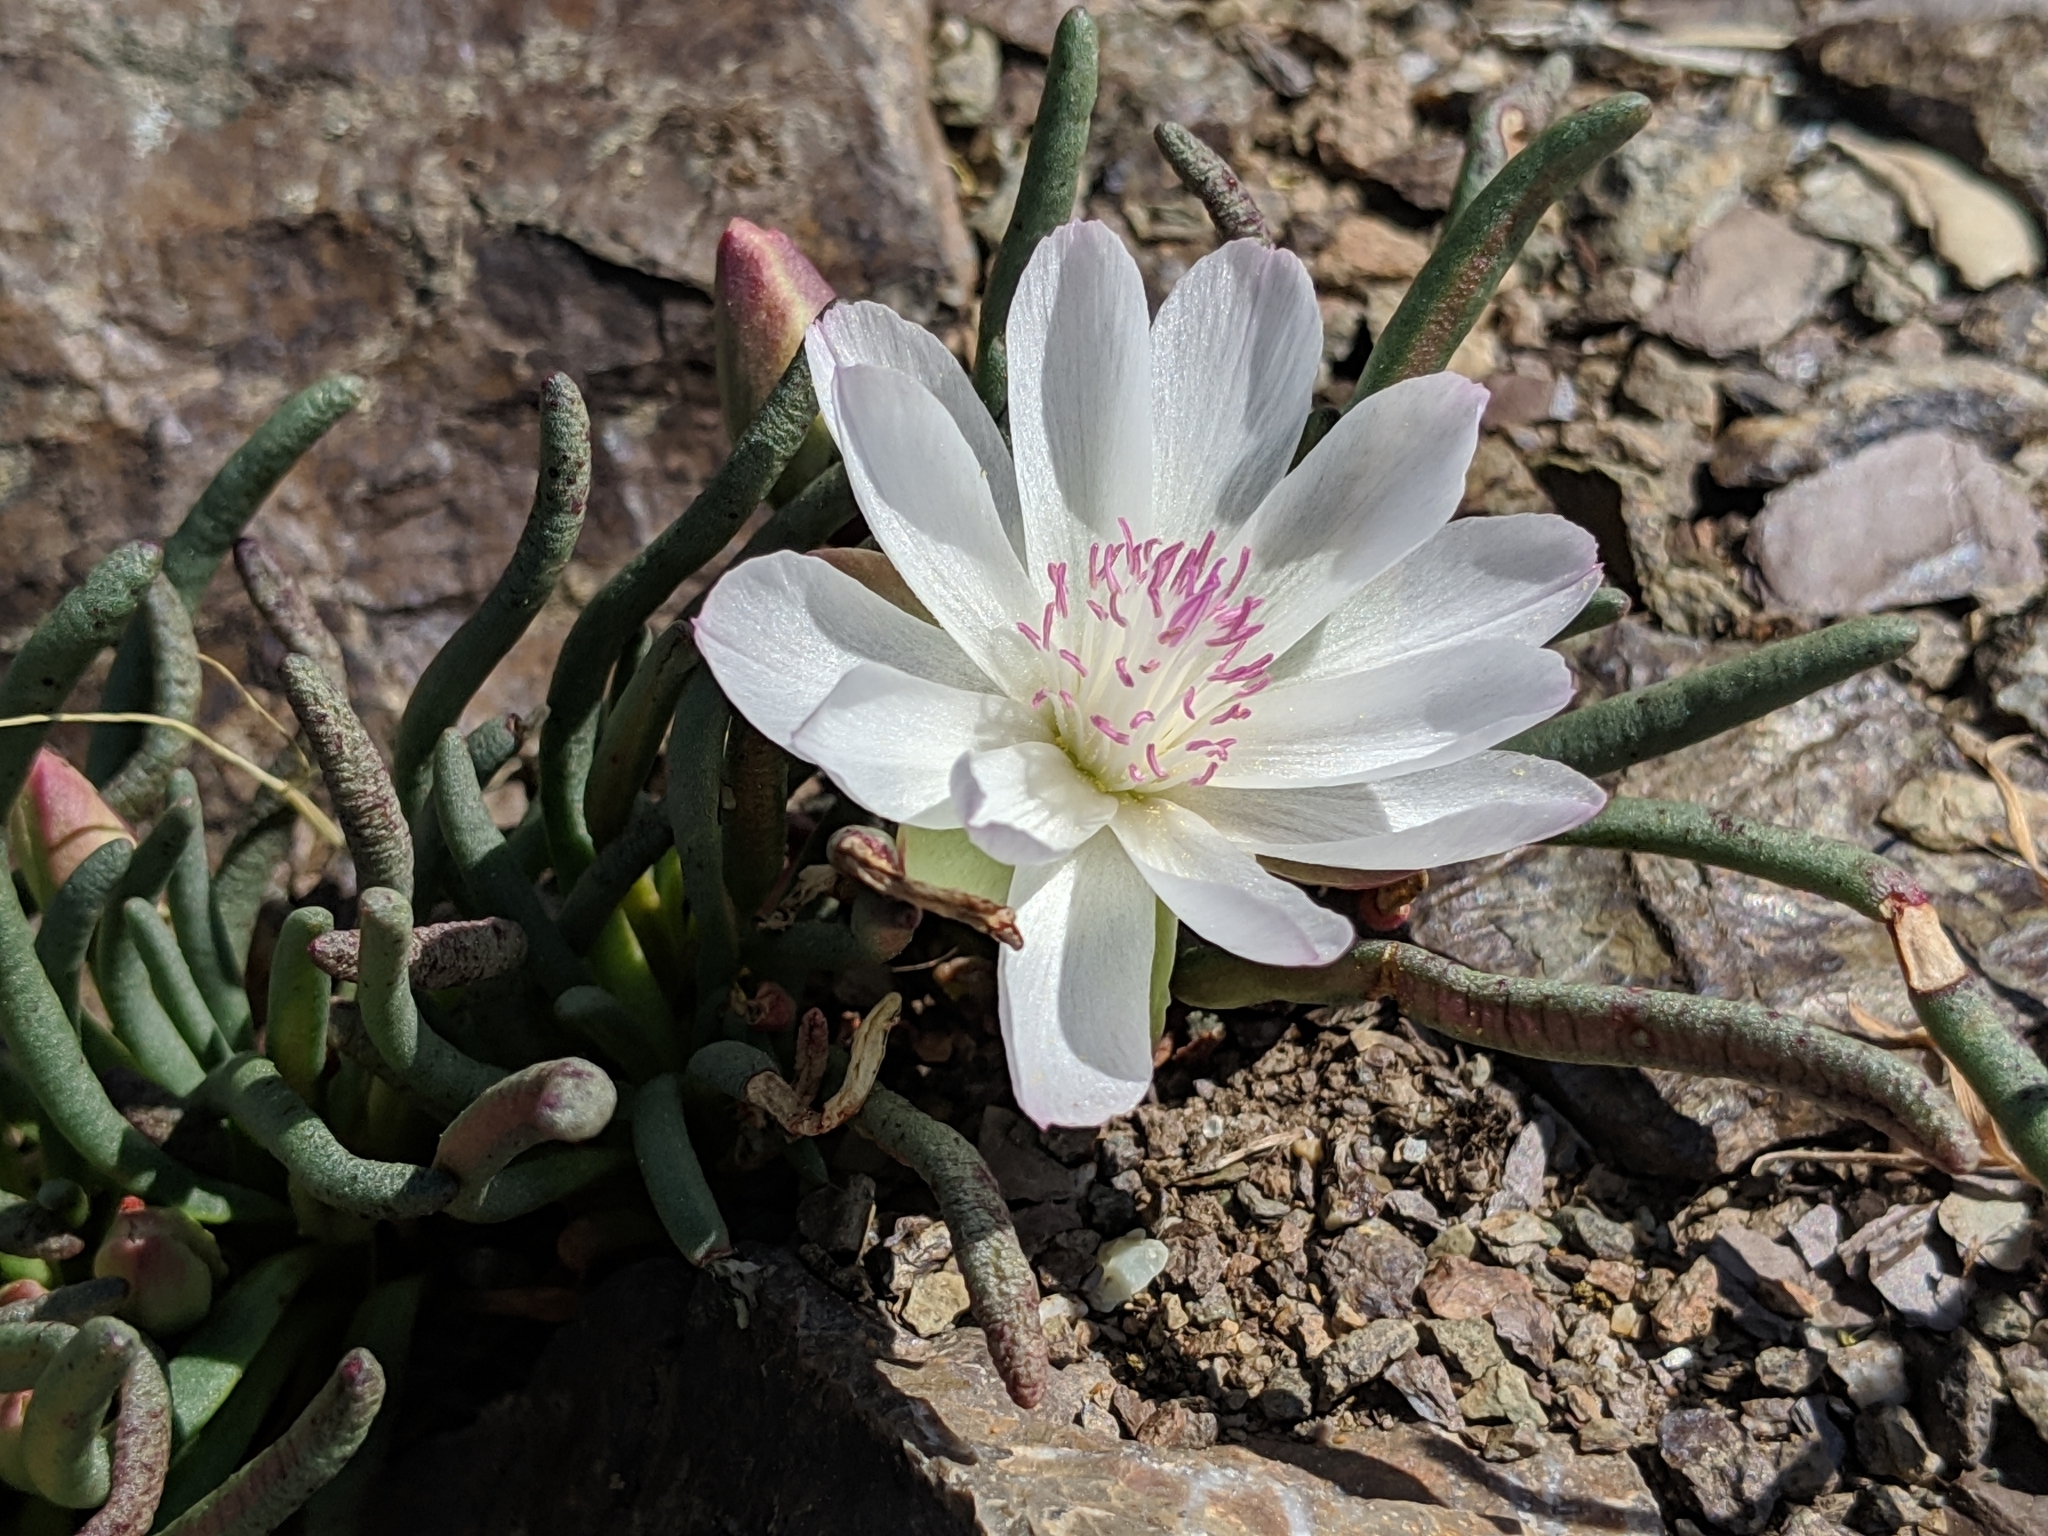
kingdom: Plantae
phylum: Tracheophyta
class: Magnoliopsida
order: Caryophyllales
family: Montiaceae
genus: Lewisia
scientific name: Lewisia rediviva
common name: Bitter-root
